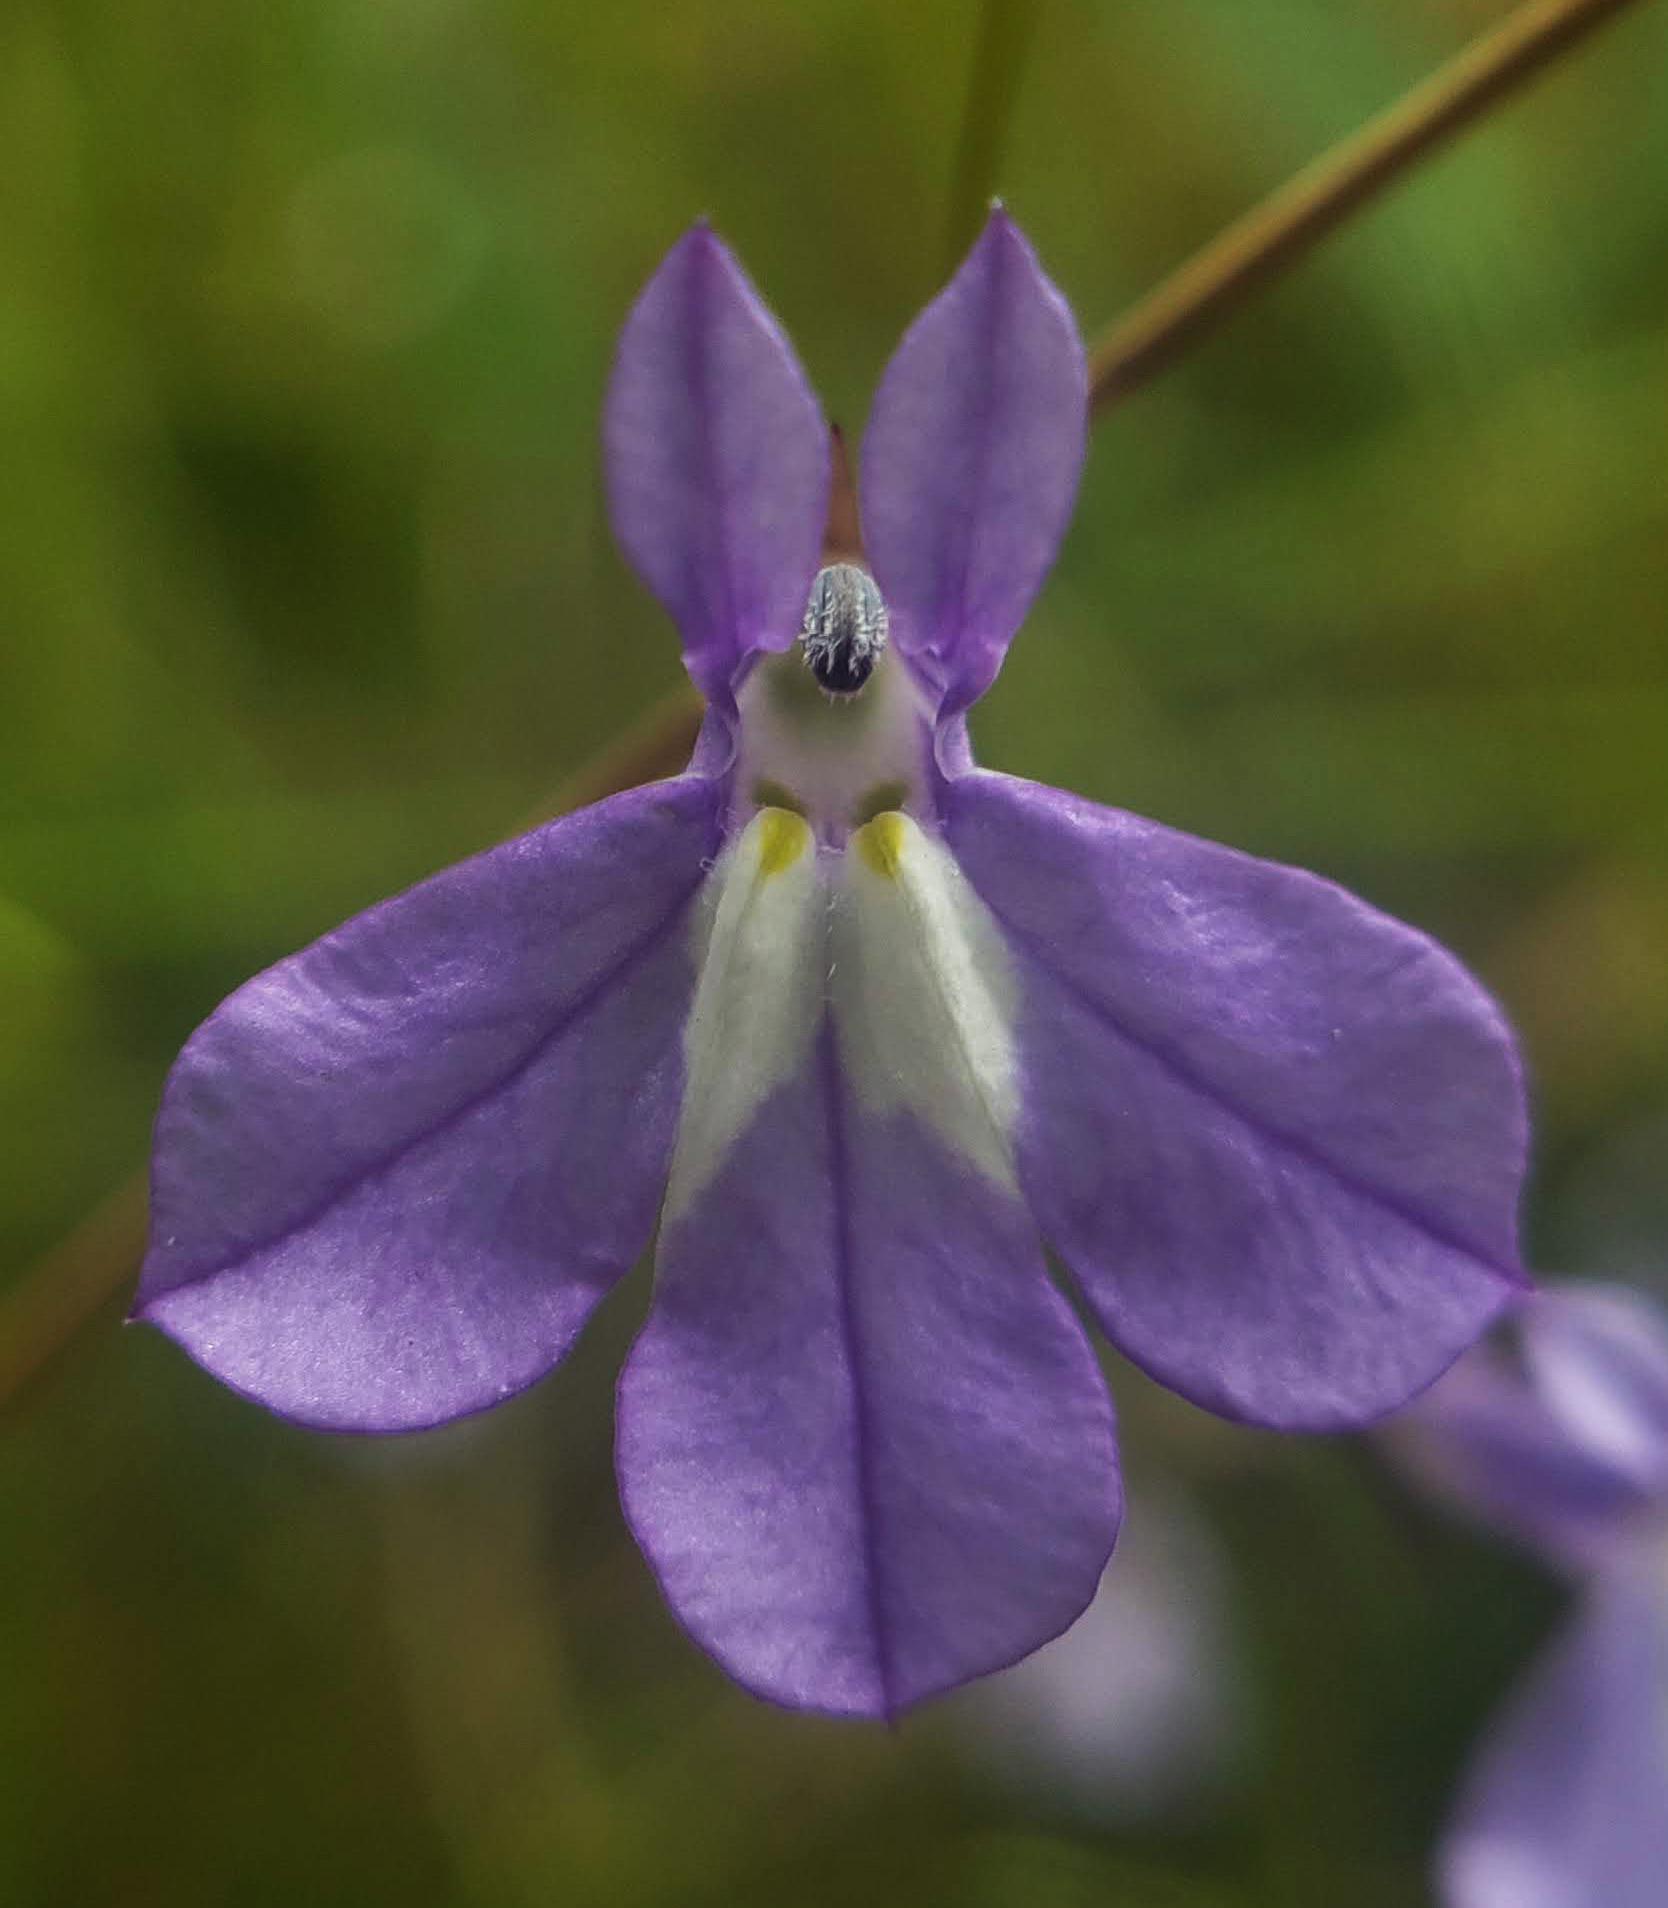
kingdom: Plantae
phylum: Tracheophyta
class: Magnoliopsida
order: Asterales
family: Campanulaceae
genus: Lobelia
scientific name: Lobelia kalmii
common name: Kalm's lobelia
